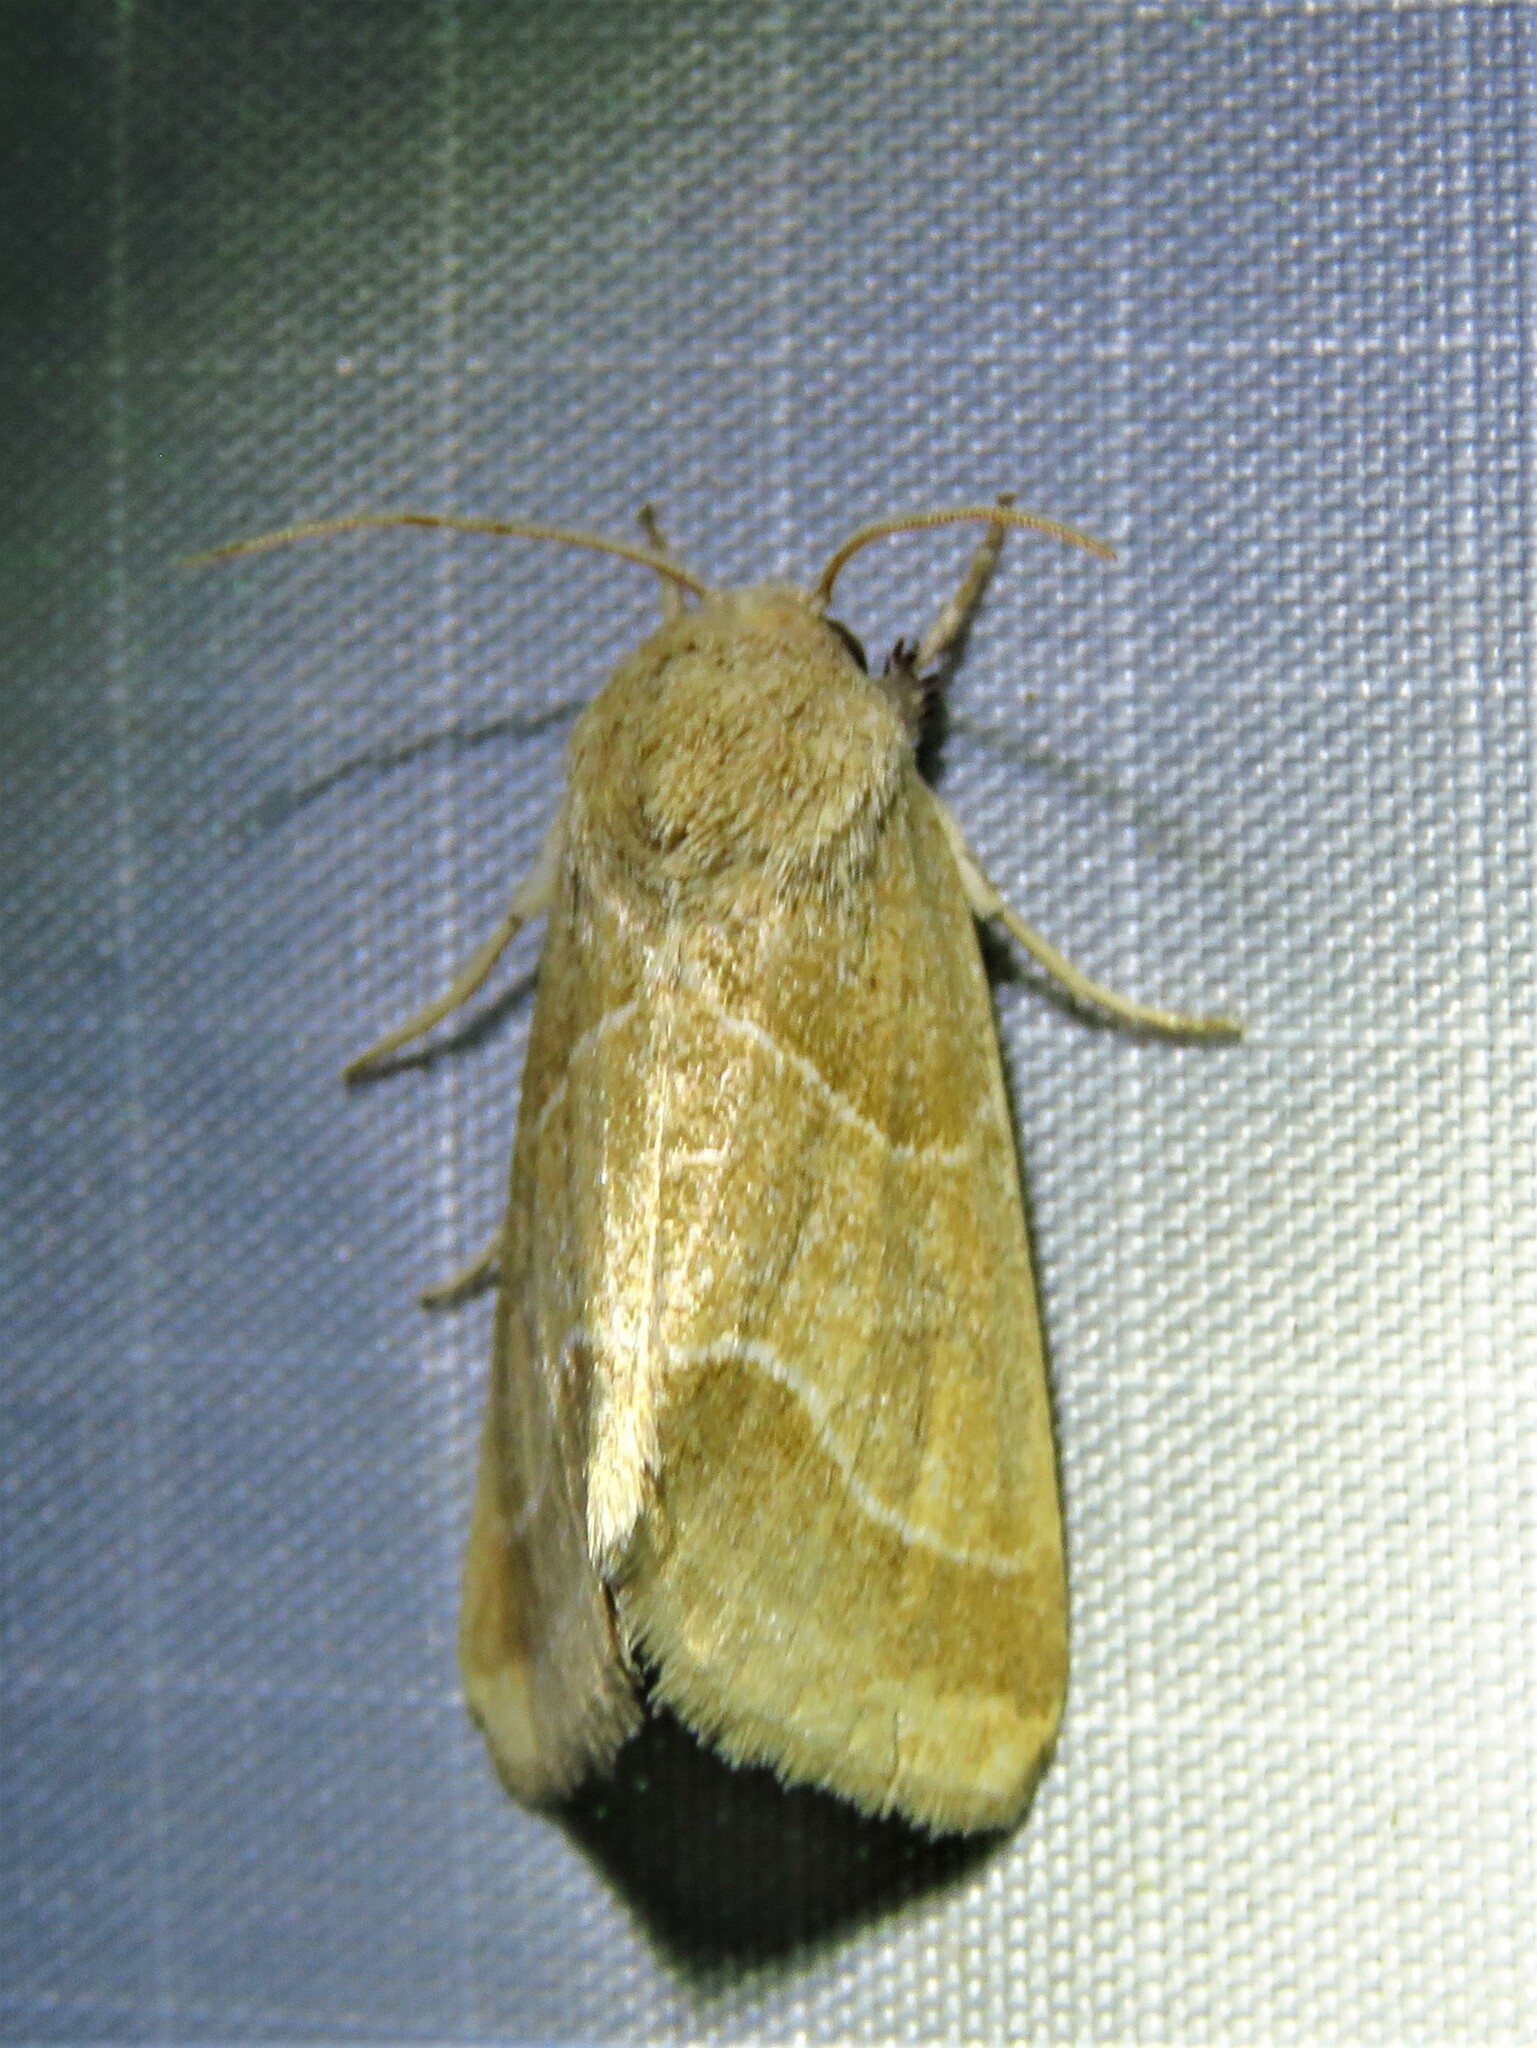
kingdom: Animalia
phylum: Arthropoda
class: Insecta
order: Lepidoptera
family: Noctuidae
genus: Schinia
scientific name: Schinia gracilenta
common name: Slender flower moth
